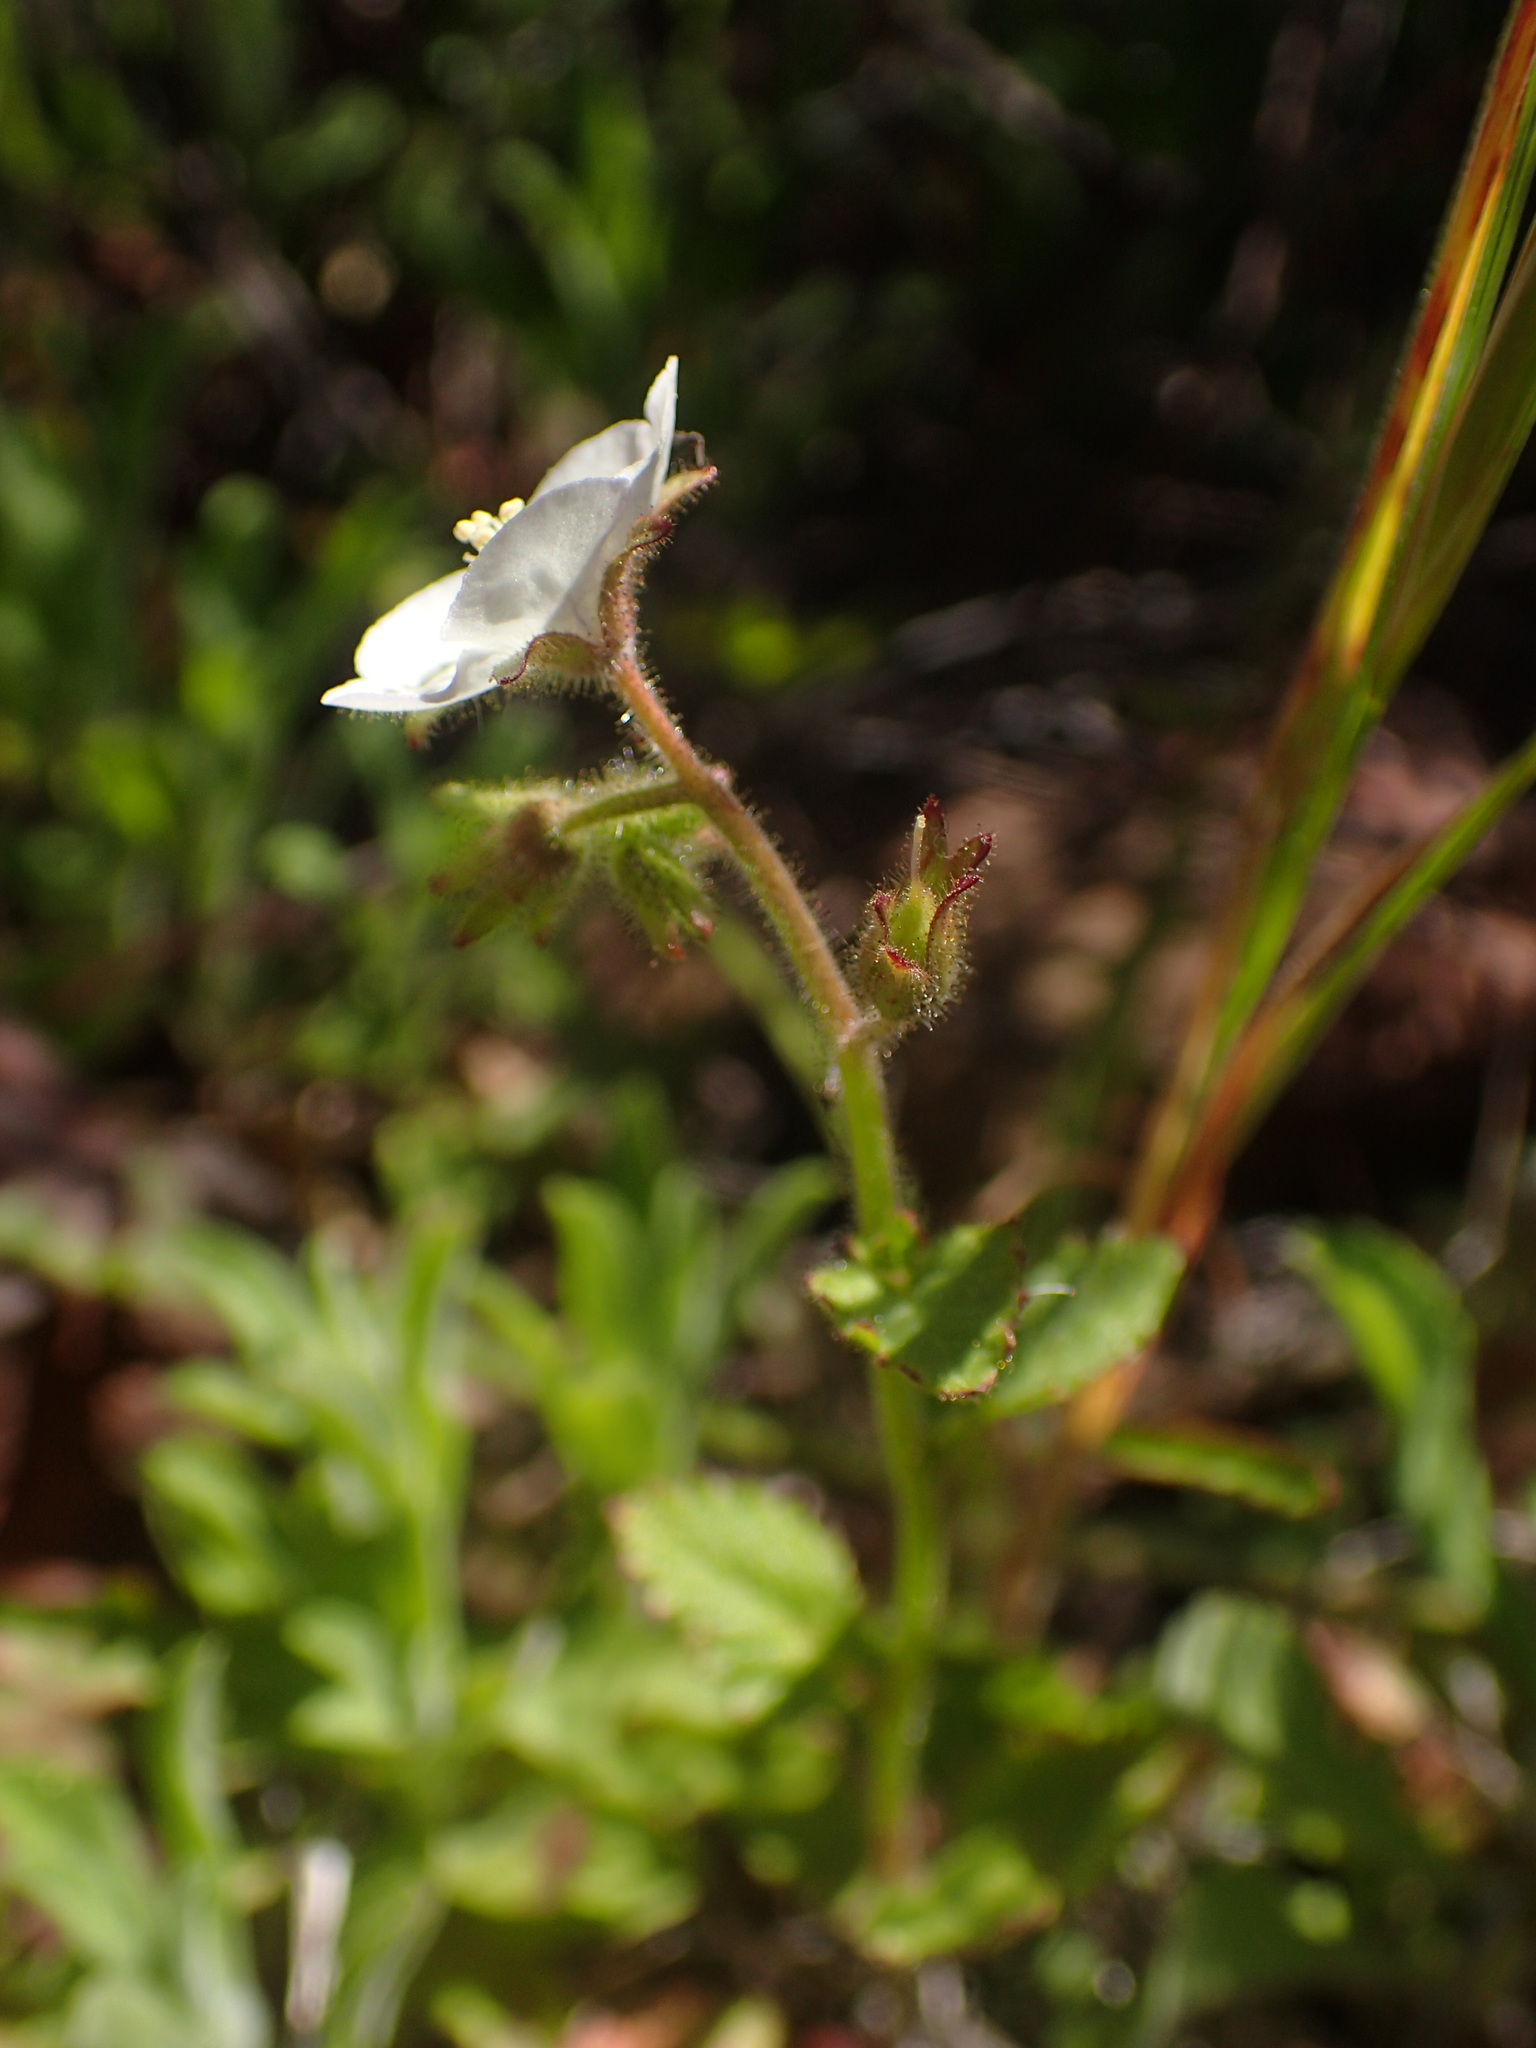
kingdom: Plantae
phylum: Tracheophyta
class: Magnoliopsida
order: Boraginales
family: Hydrophyllaceae
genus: Phacelia
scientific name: Phacelia viscida
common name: Sticky phacelia
